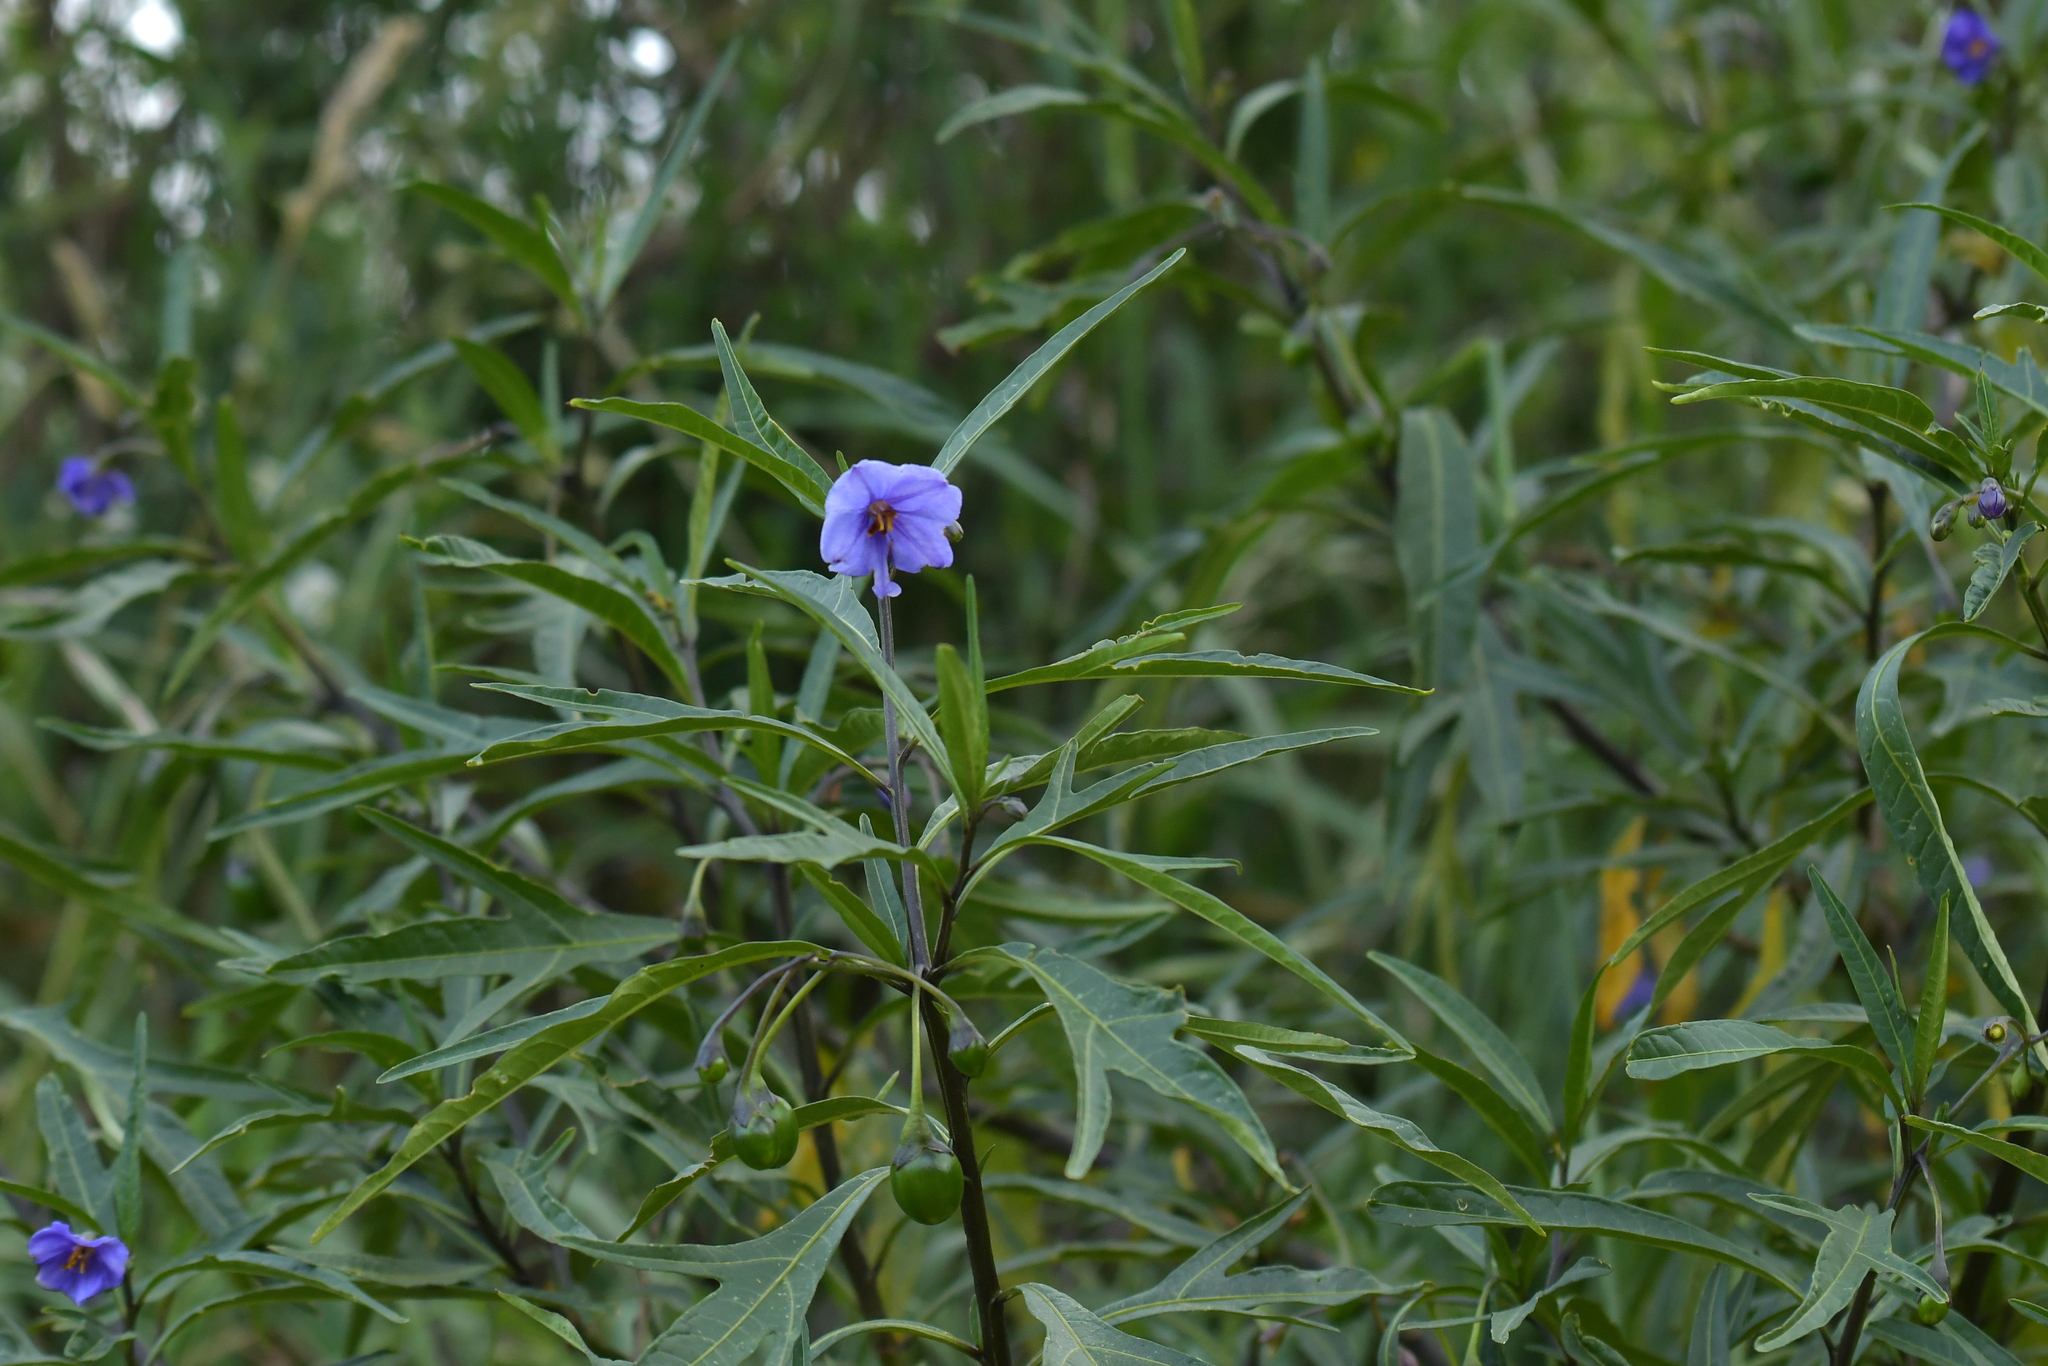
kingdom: Plantae
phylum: Tracheophyta
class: Magnoliopsida
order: Solanales
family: Solanaceae
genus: Solanum
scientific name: Solanum laciniatum
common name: Kangaroo-apple
